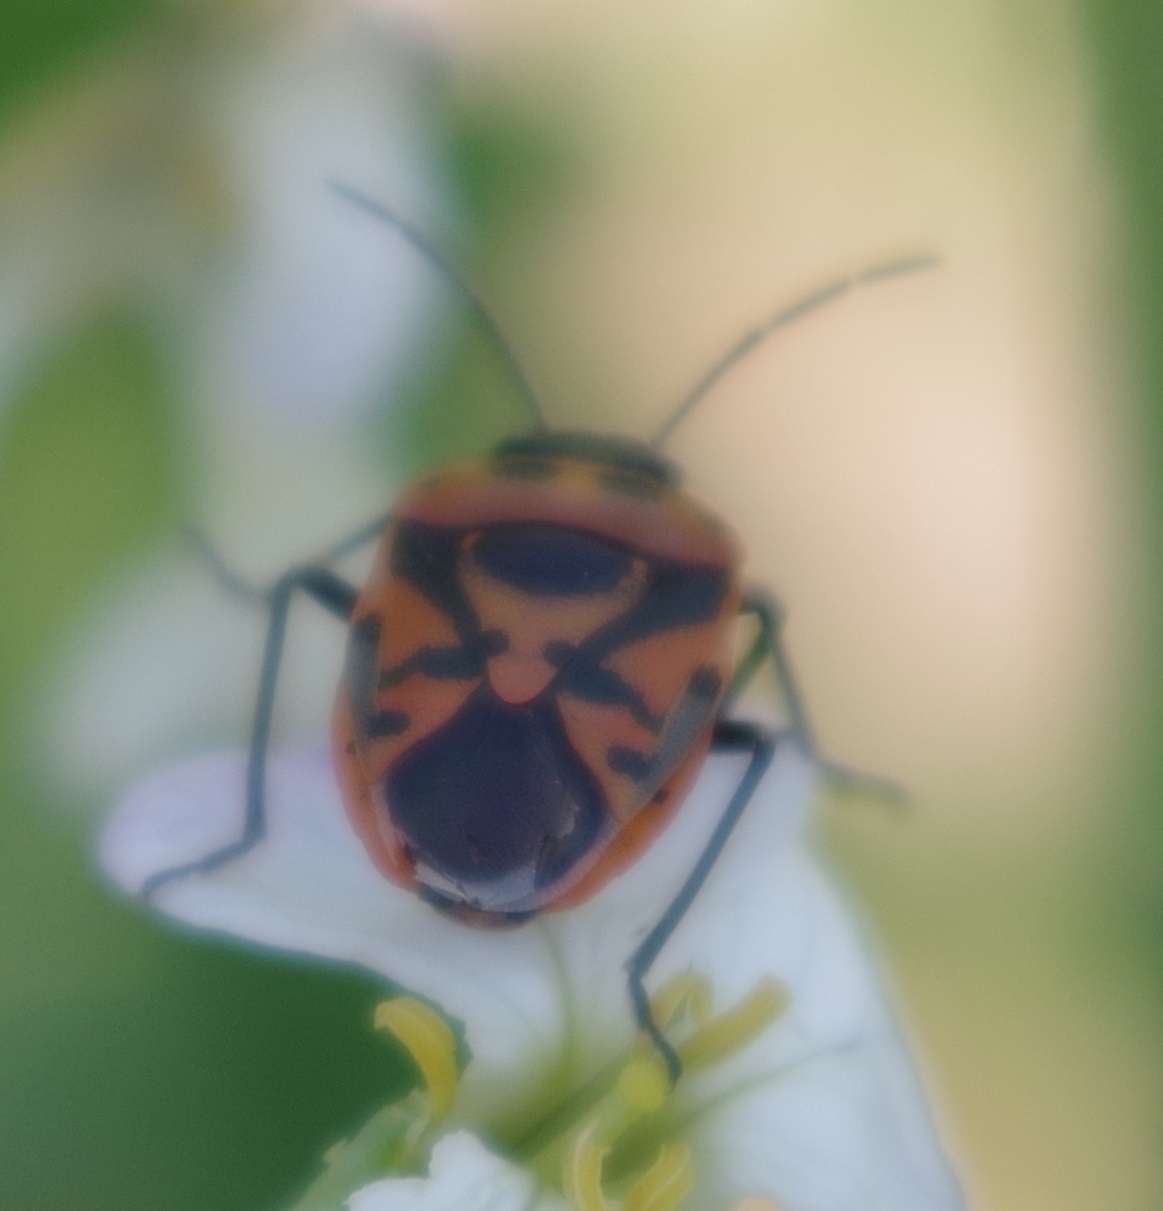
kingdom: Animalia
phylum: Arthropoda
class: Insecta
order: Hemiptera
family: Pentatomidae
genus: Eurydema
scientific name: Eurydema ornata
